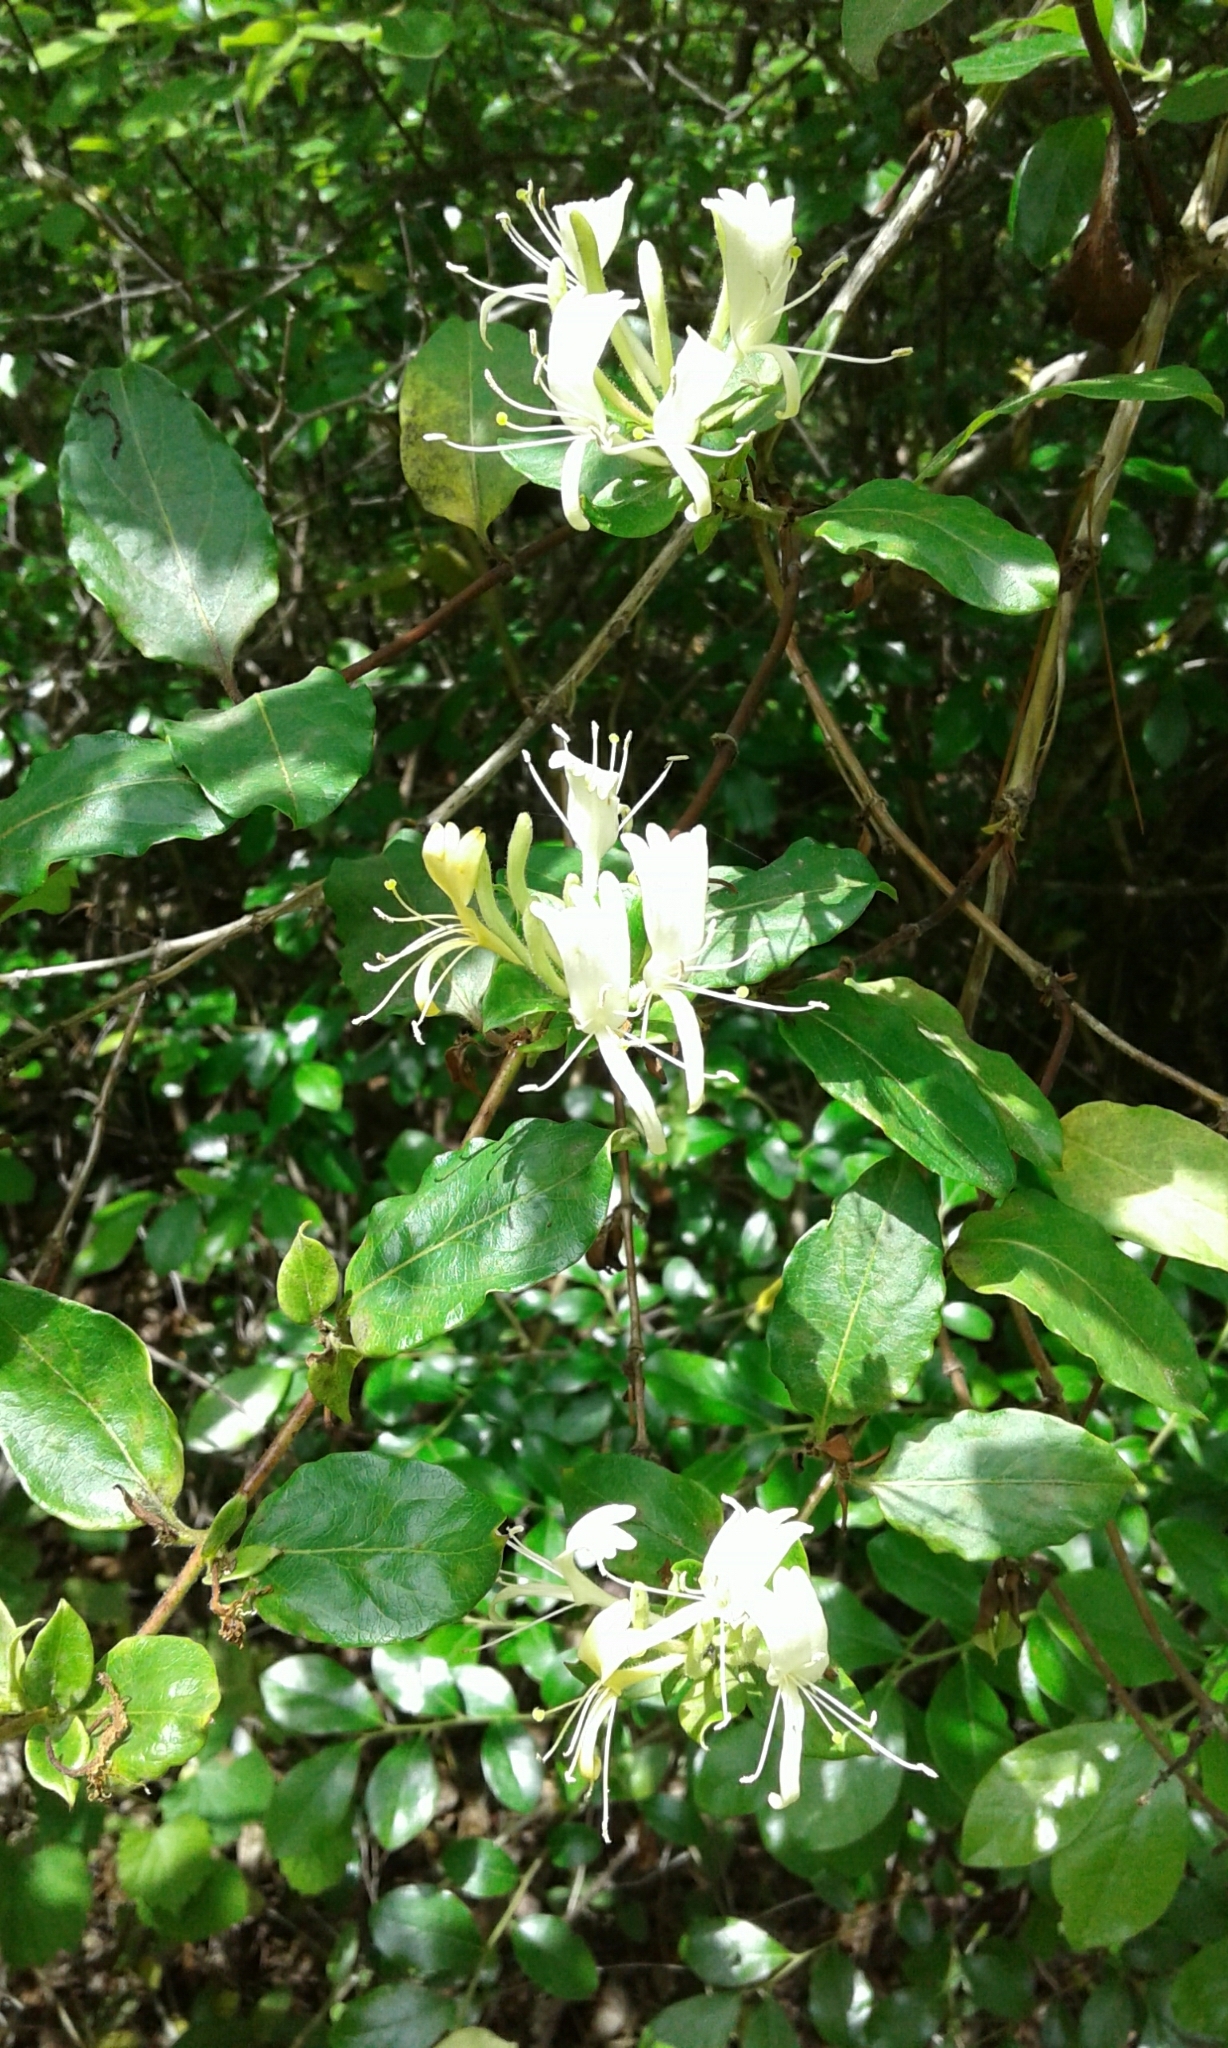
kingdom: Plantae
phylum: Tracheophyta
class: Magnoliopsida
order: Dipsacales
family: Caprifoliaceae
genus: Lonicera
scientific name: Lonicera japonica
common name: Japanese honeysuckle
